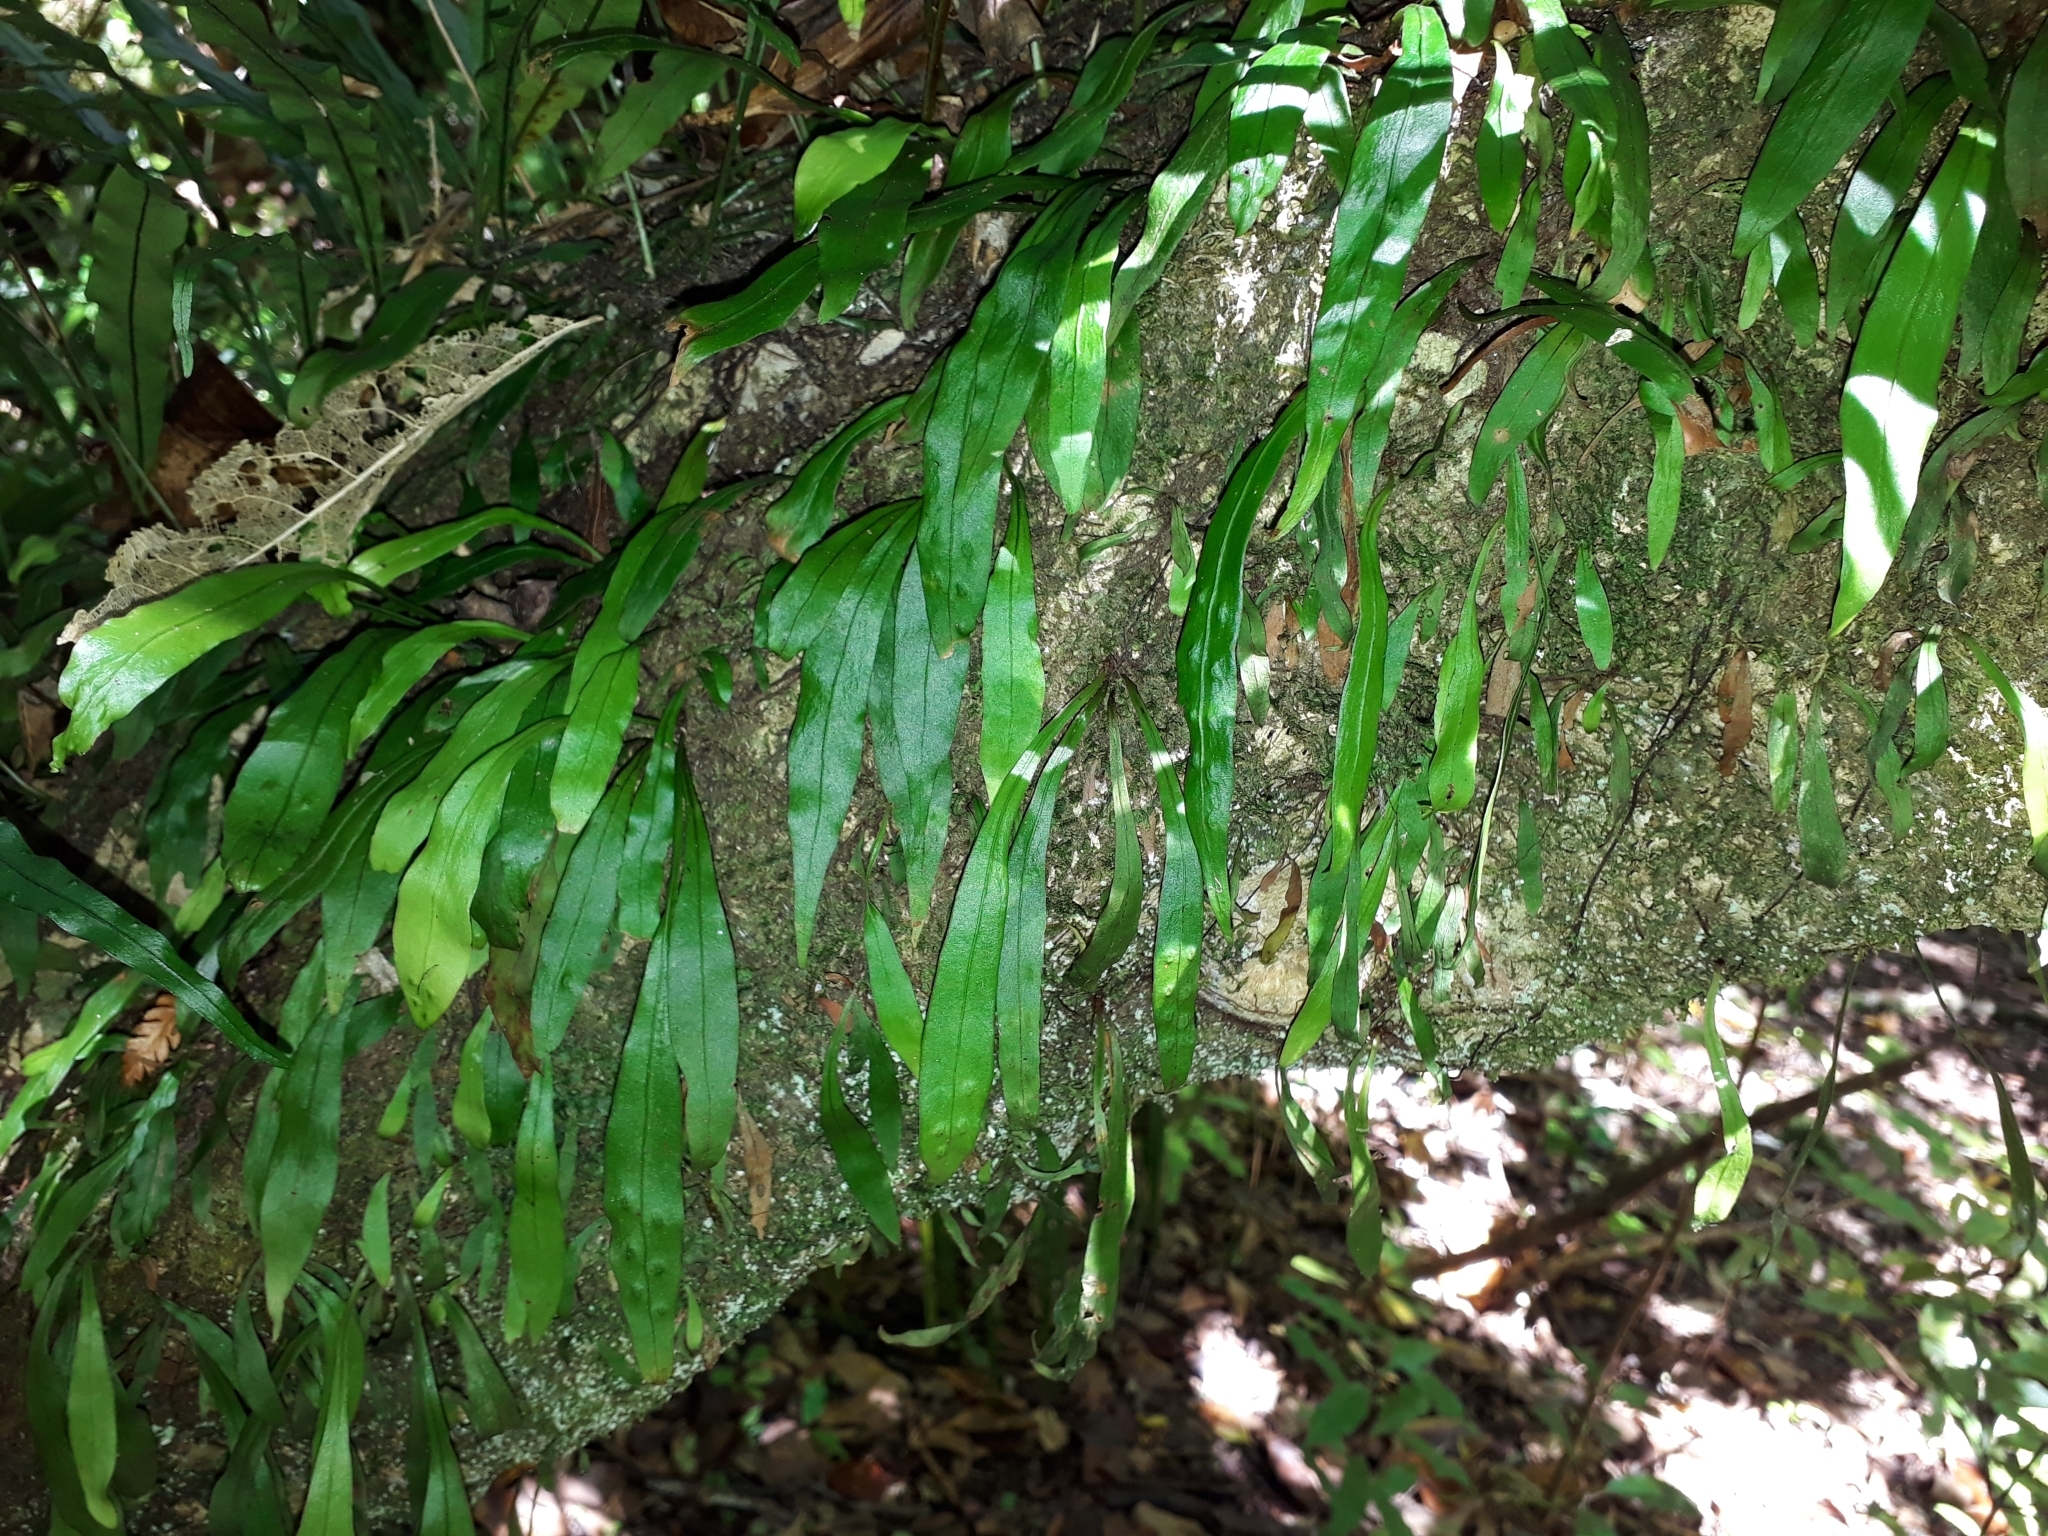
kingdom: Plantae
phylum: Tracheophyta
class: Polypodiopsida
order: Polypodiales
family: Polypodiaceae
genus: Loxogramme
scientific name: Loxogramme dictyopteris
